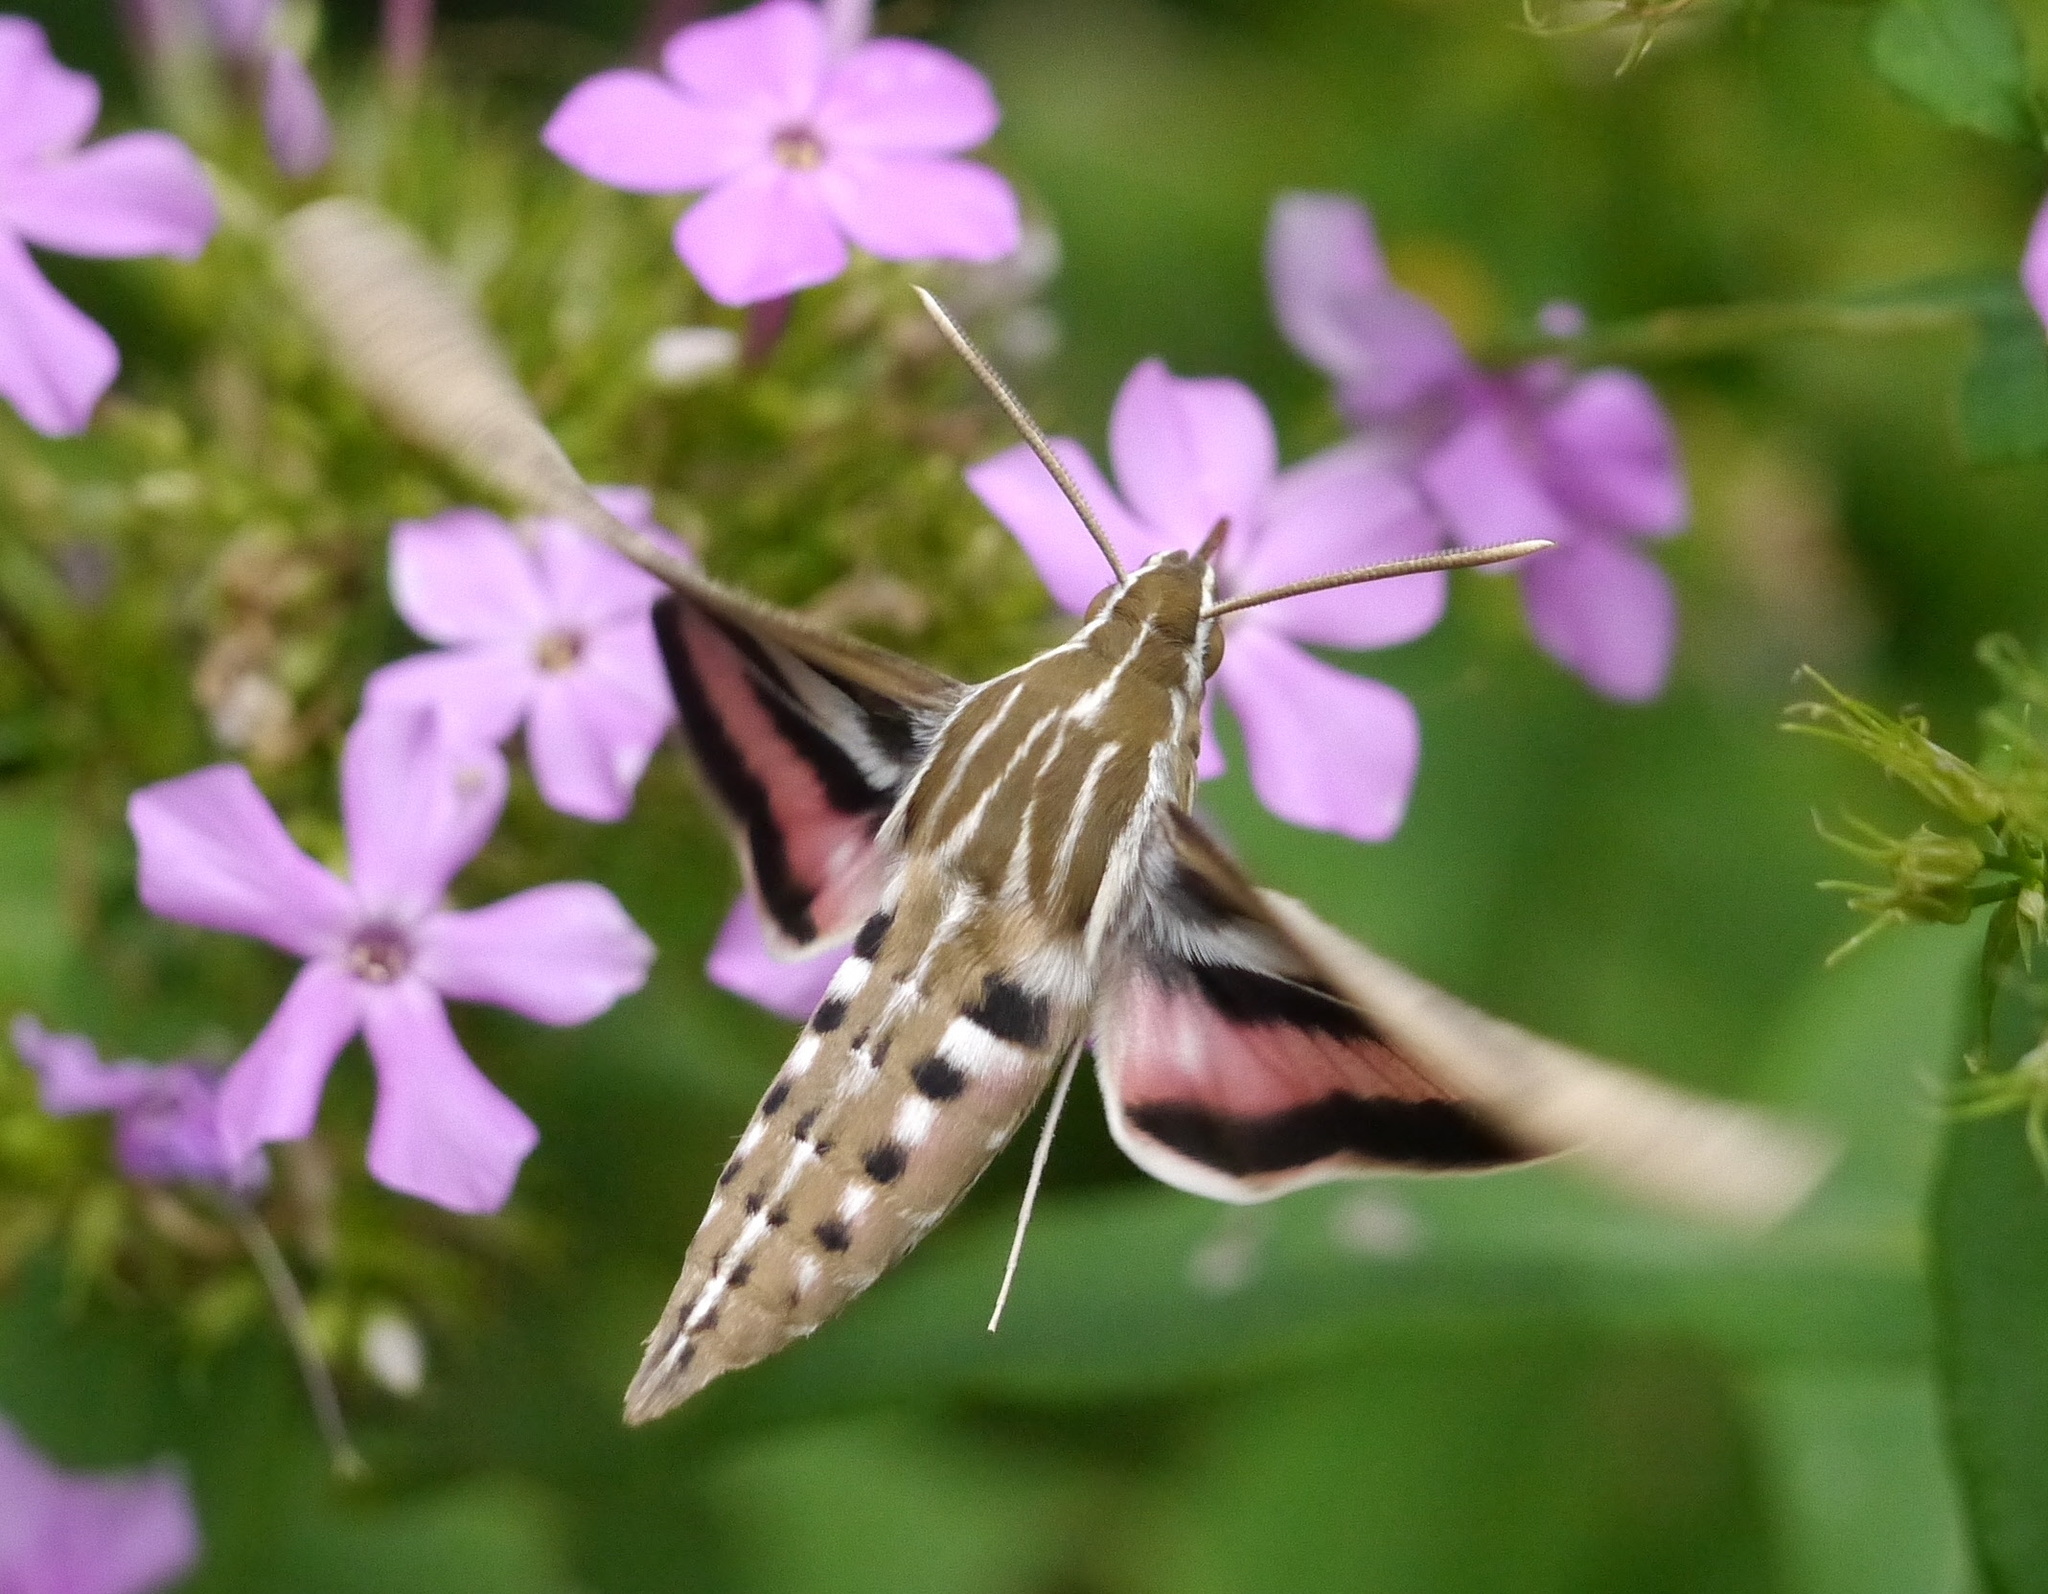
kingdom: Animalia
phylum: Arthropoda
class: Insecta
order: Lepidoptera
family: Sphingidae
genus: Hyles
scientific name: Hyles lineata
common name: White-lined sphinx
